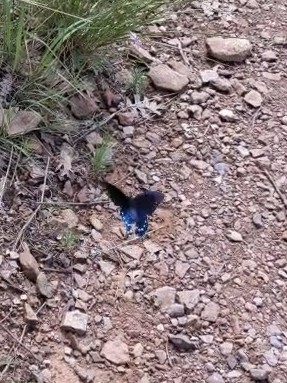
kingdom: Animalia
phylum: Arthropoda
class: Insecta
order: Lepidoptera
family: Papilionidae
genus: Battus
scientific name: Battus philenor
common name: Pipevine swallowtail
